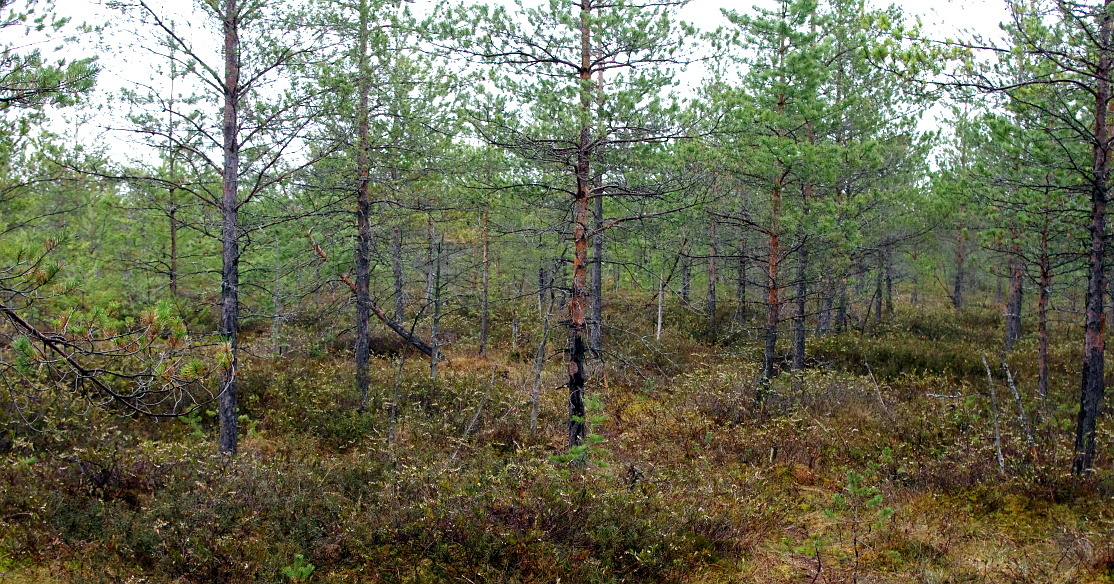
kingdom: Plantae
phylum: Tracheophyta
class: Pinopsida
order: Pinales
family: Pinaceae
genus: Pinus
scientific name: Pinus sylvestris
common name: Scots pine
